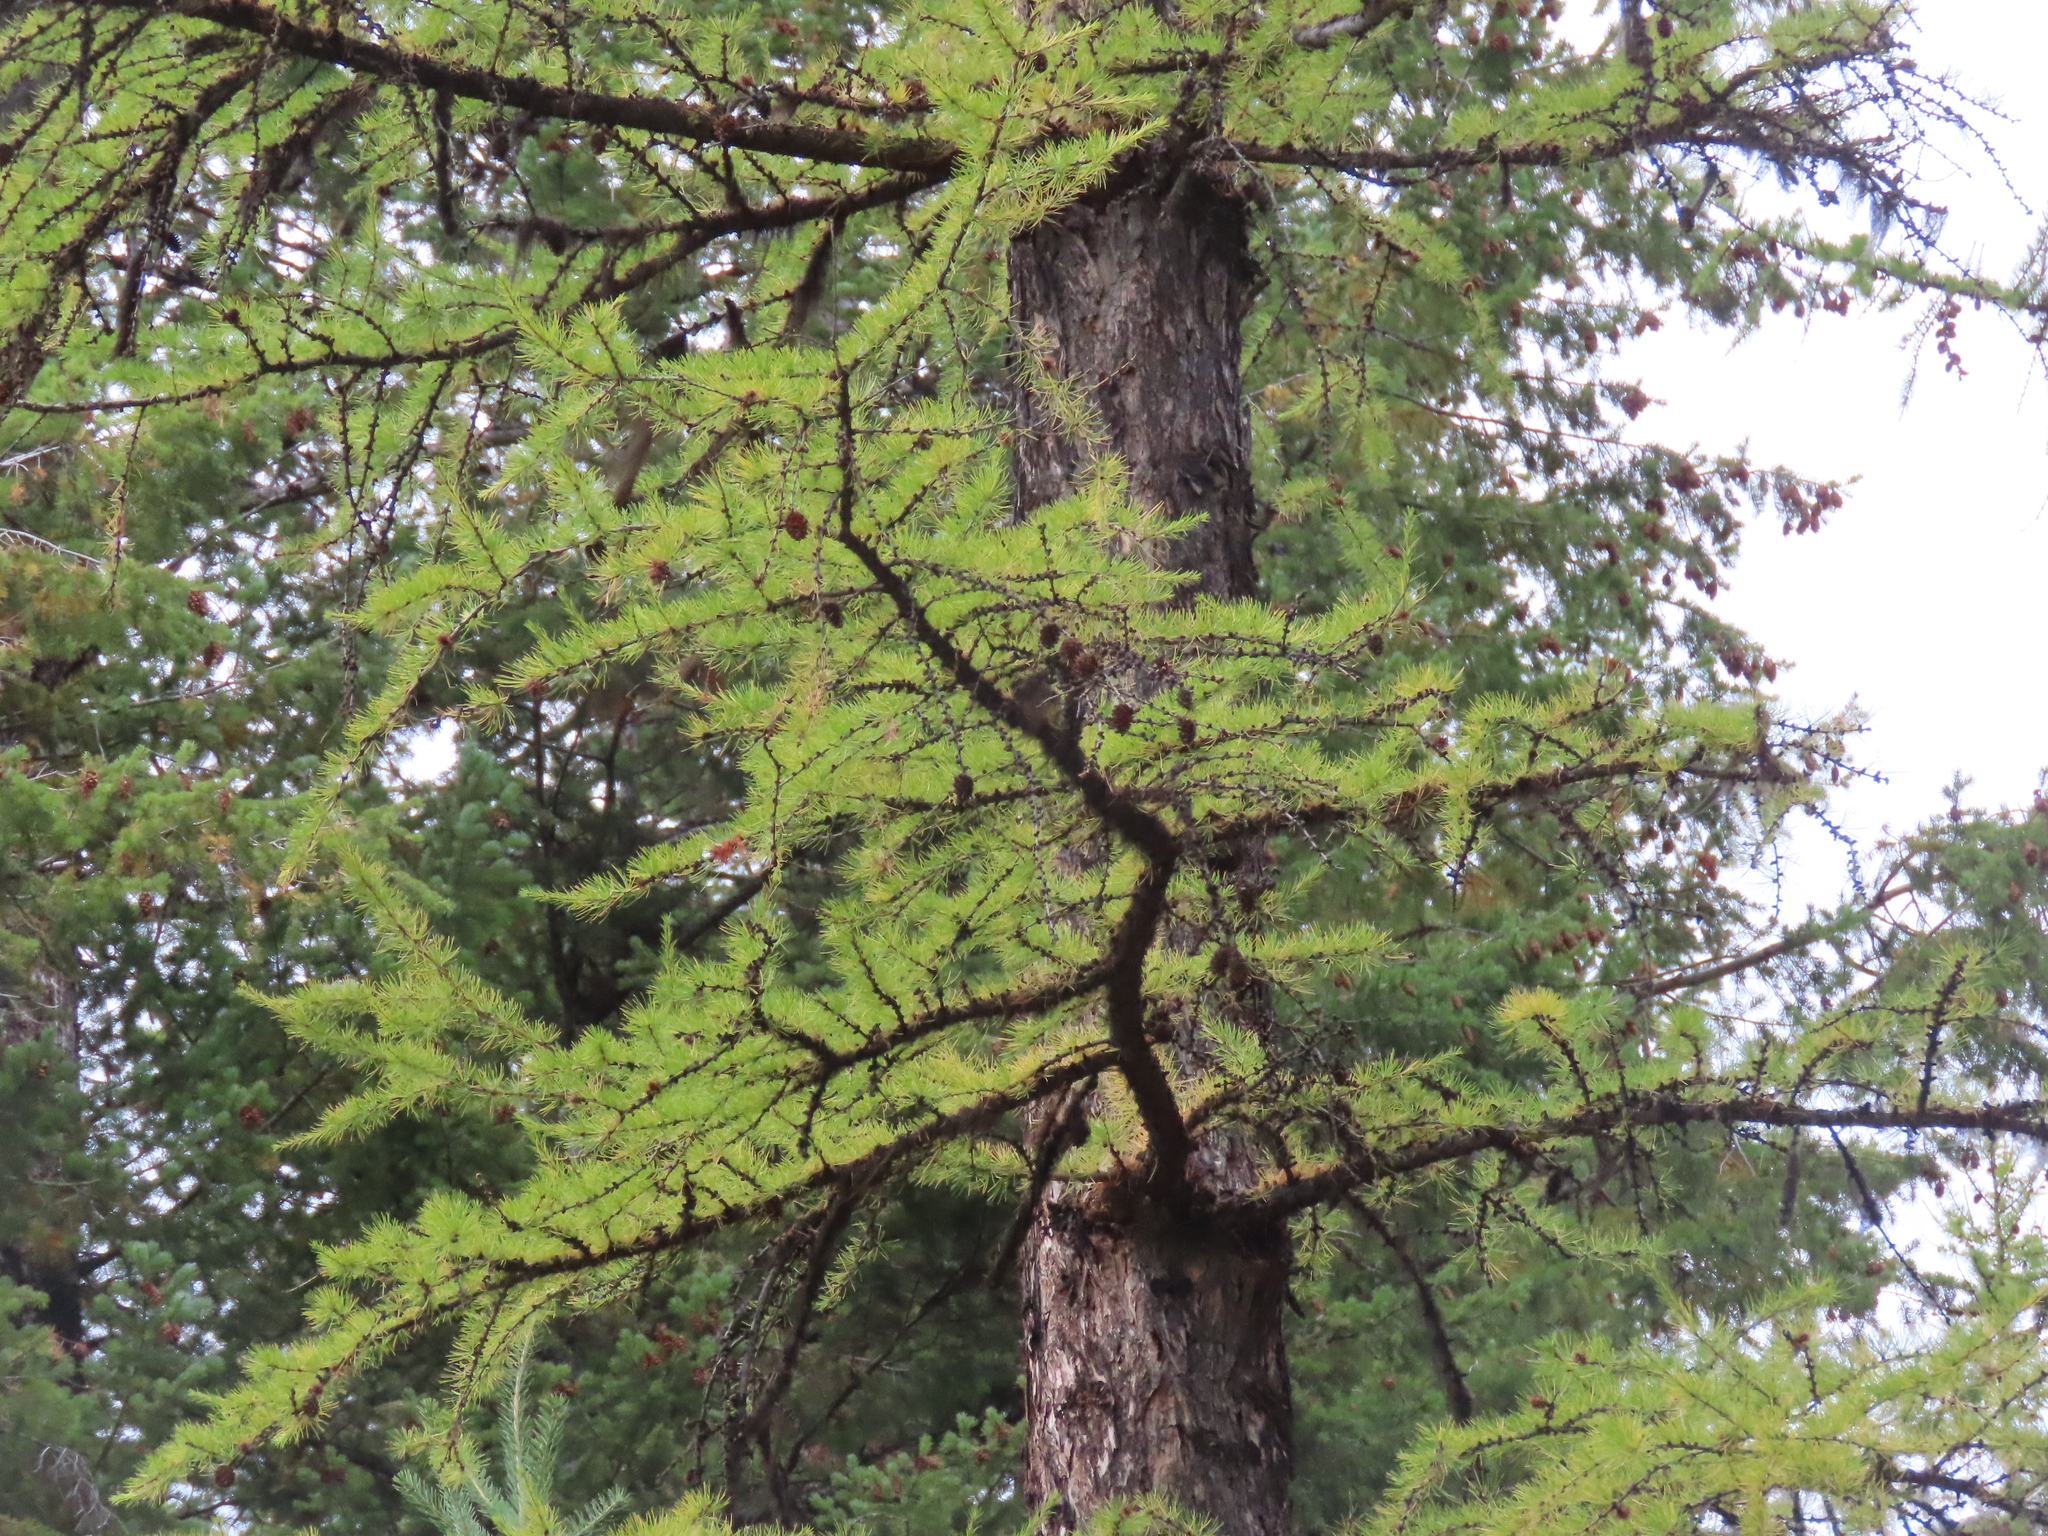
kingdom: Plantae
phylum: Tracheophyta
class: Pinopsida
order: Pinales
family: Pinaceae
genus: Larix
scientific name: Larix occidentalis
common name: Western larch
